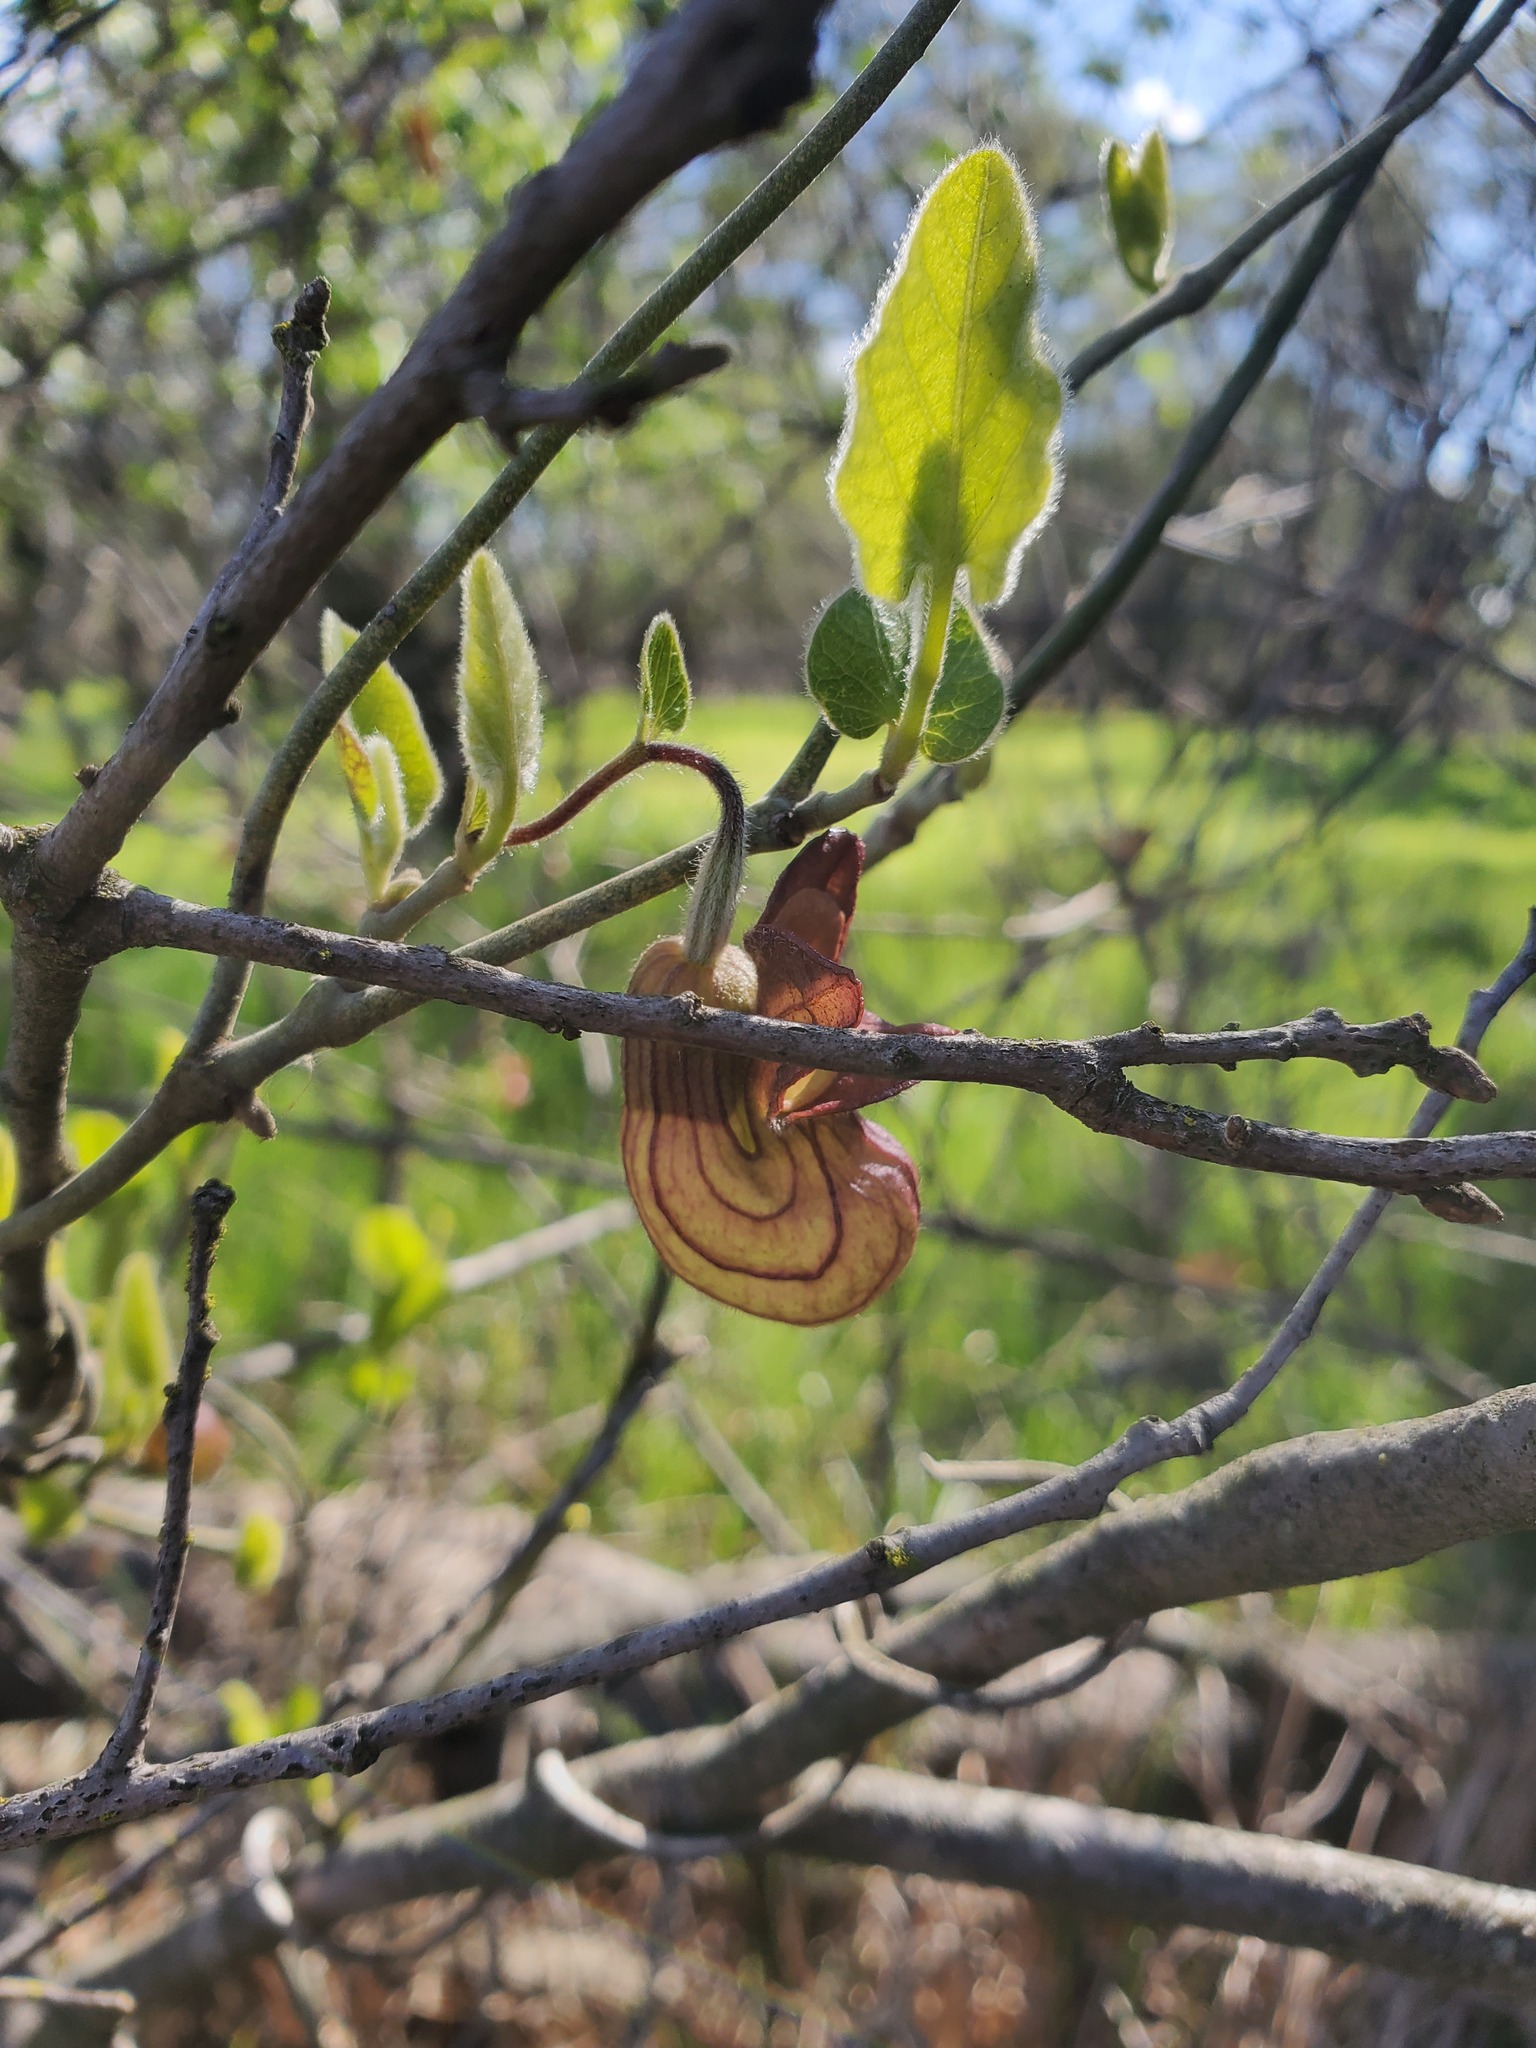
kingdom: Plantae
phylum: Tracheophyta
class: Magnoliopsida
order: Piperales
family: Aristolochiaceae
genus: Isotrema
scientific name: Isotrema californicum
